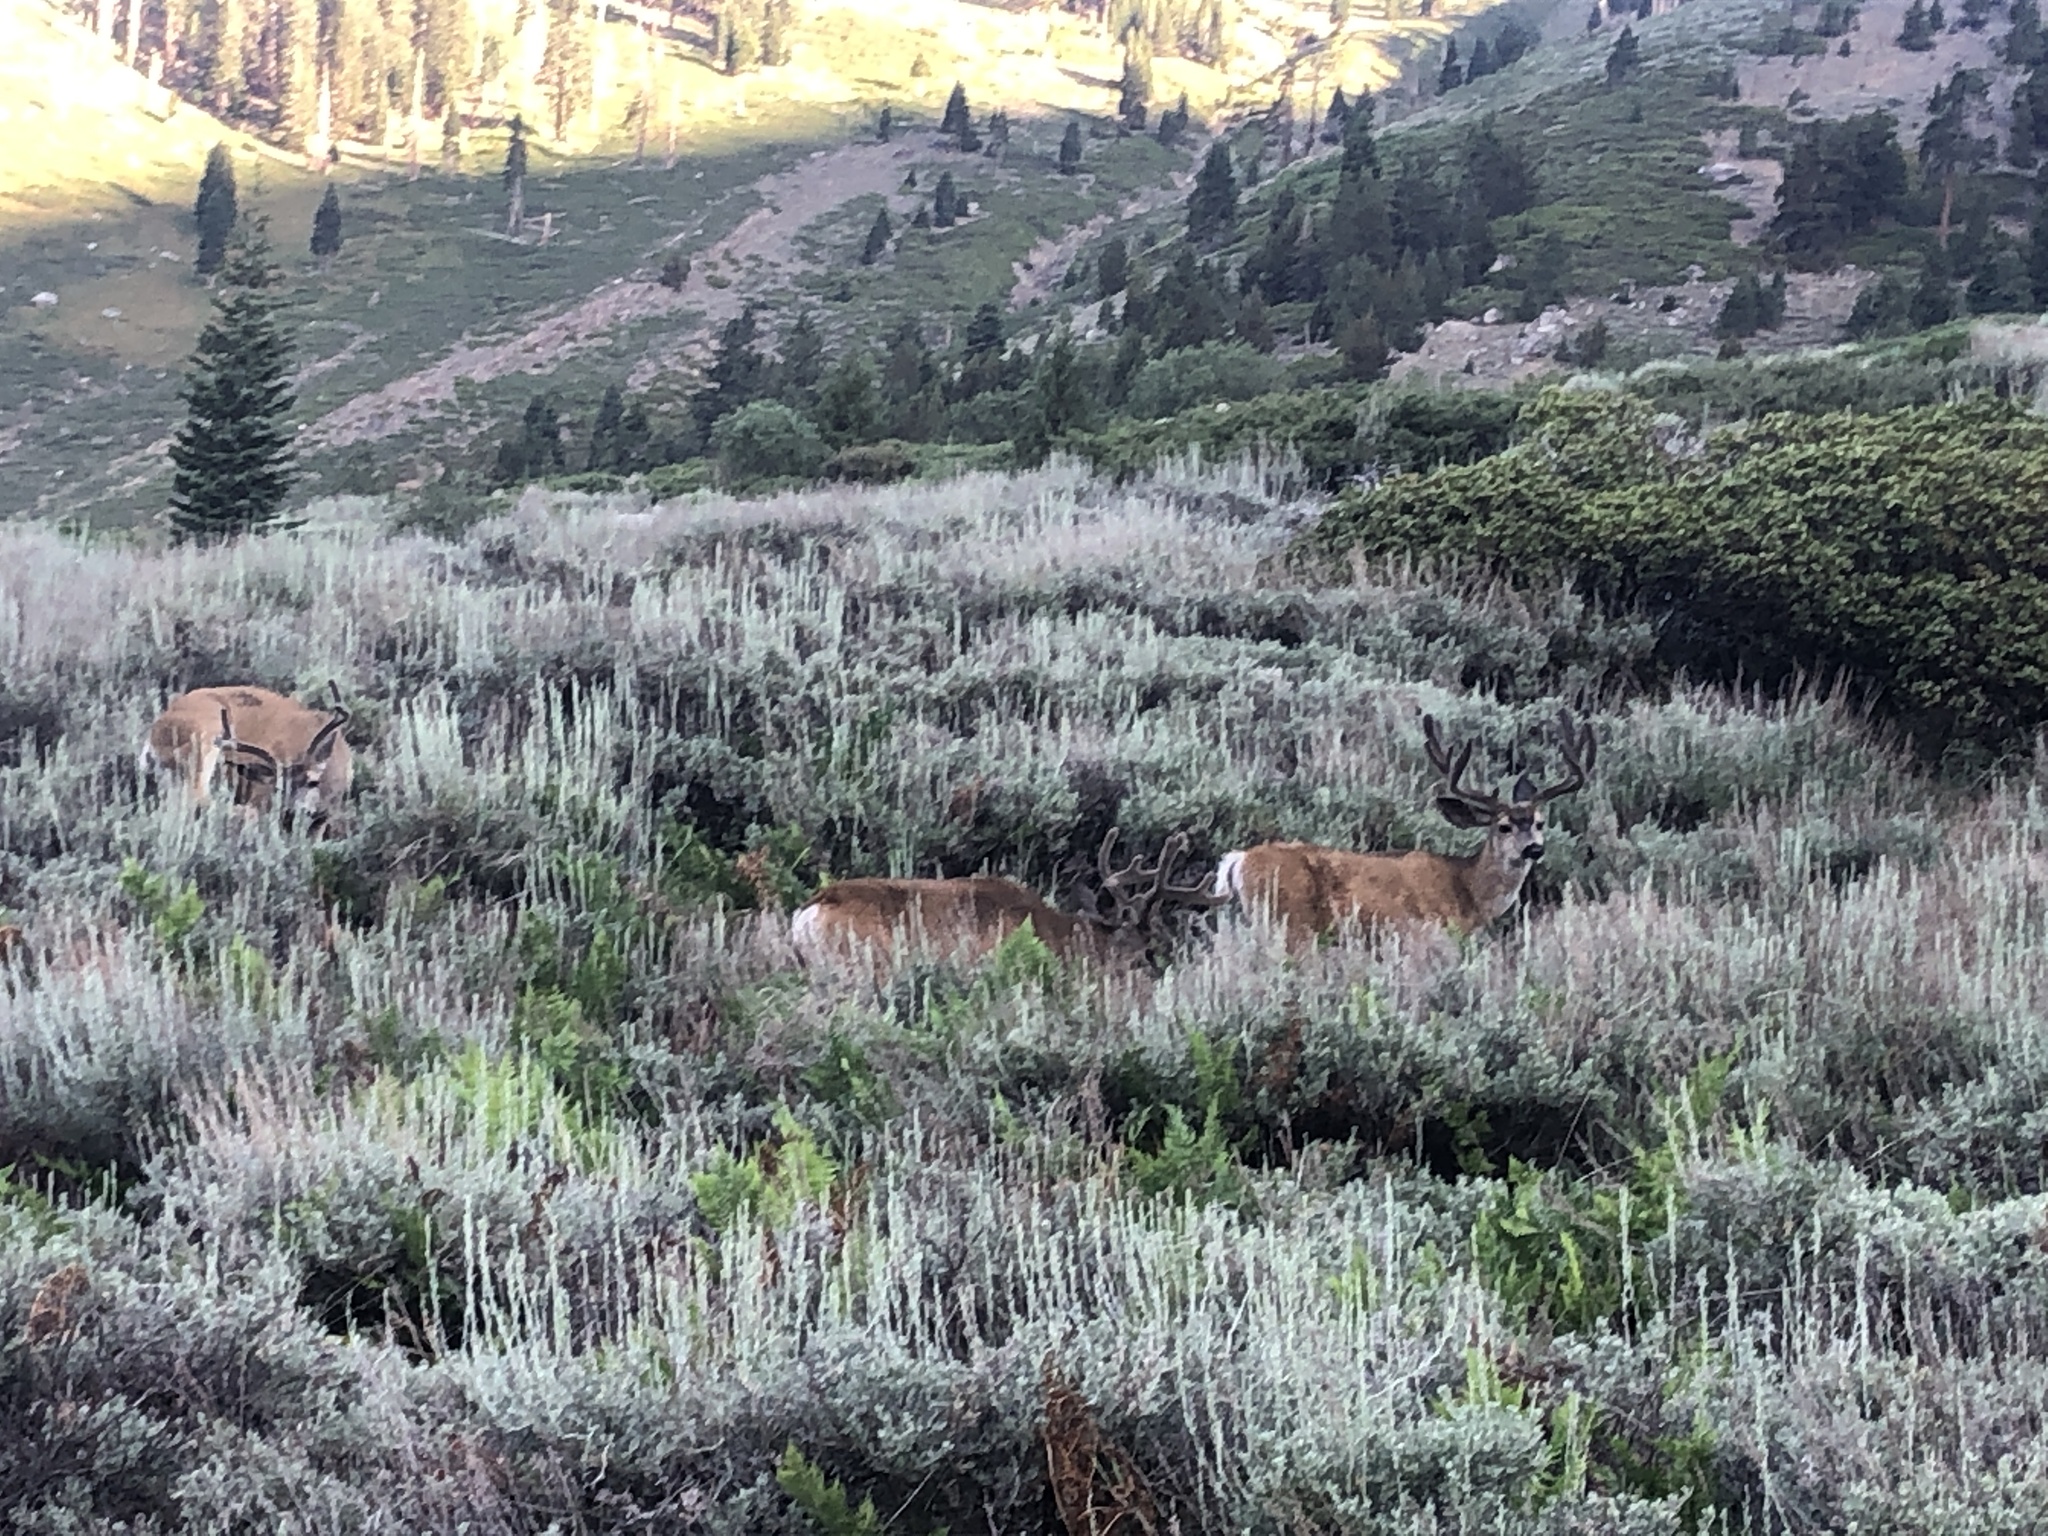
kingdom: Animalia
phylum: Chordata
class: Mammalia
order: Artiodactyla
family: Cervidae
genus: Odocoileus
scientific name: Odocoileus hemionus
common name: Mule deer
